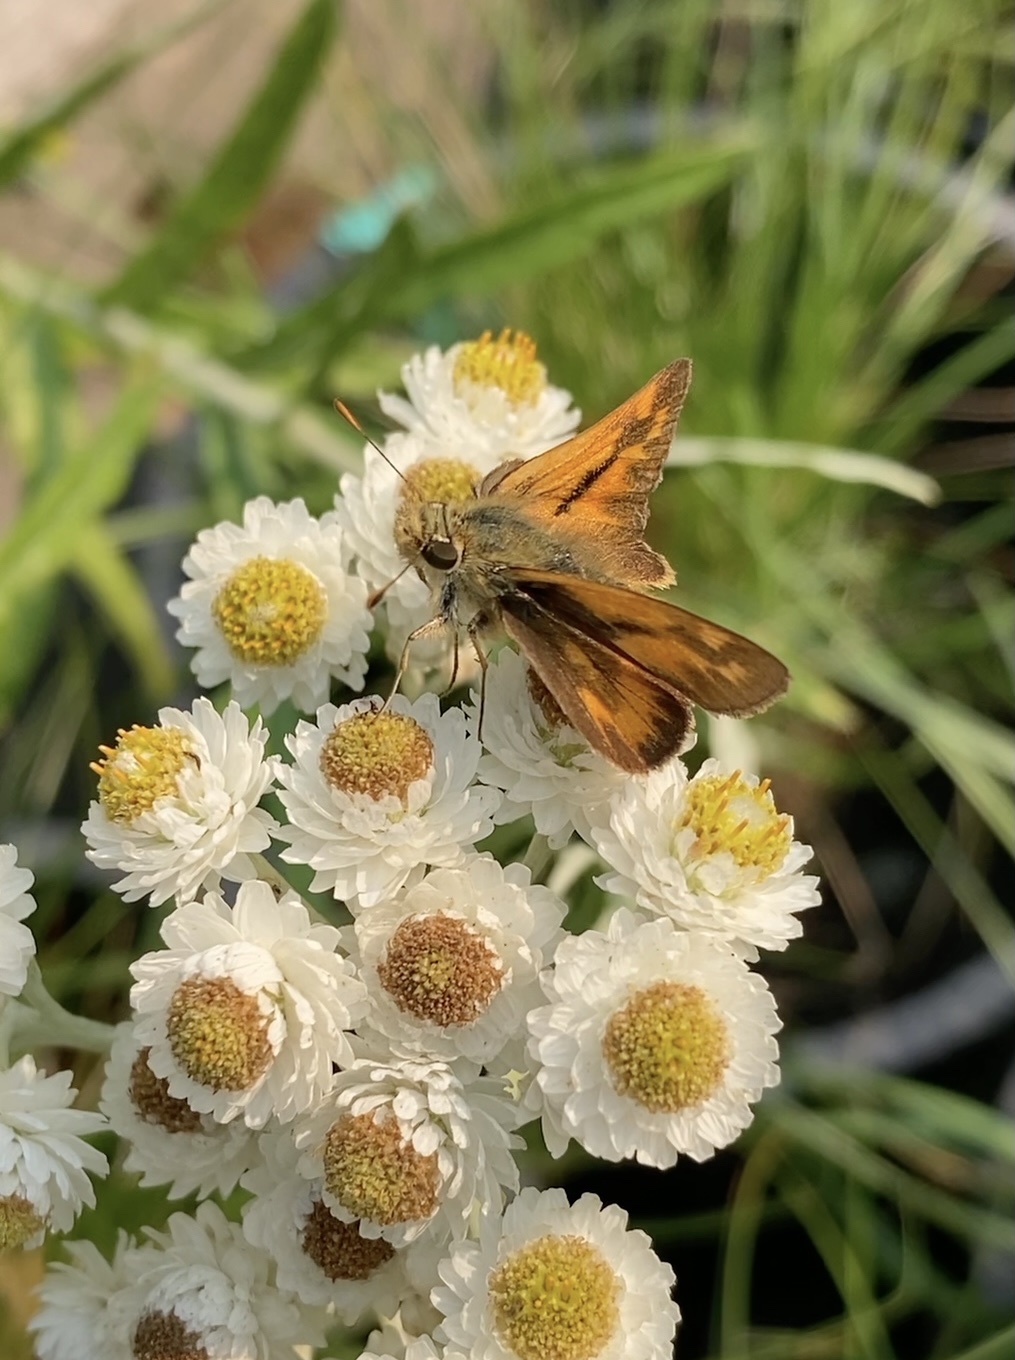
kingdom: Animalia
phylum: Arthropoda
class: Insecta
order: Lepidoptera
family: Hesperiidae
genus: Ochlodes
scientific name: Ochlodes sylvanoides
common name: Woodland skipper
